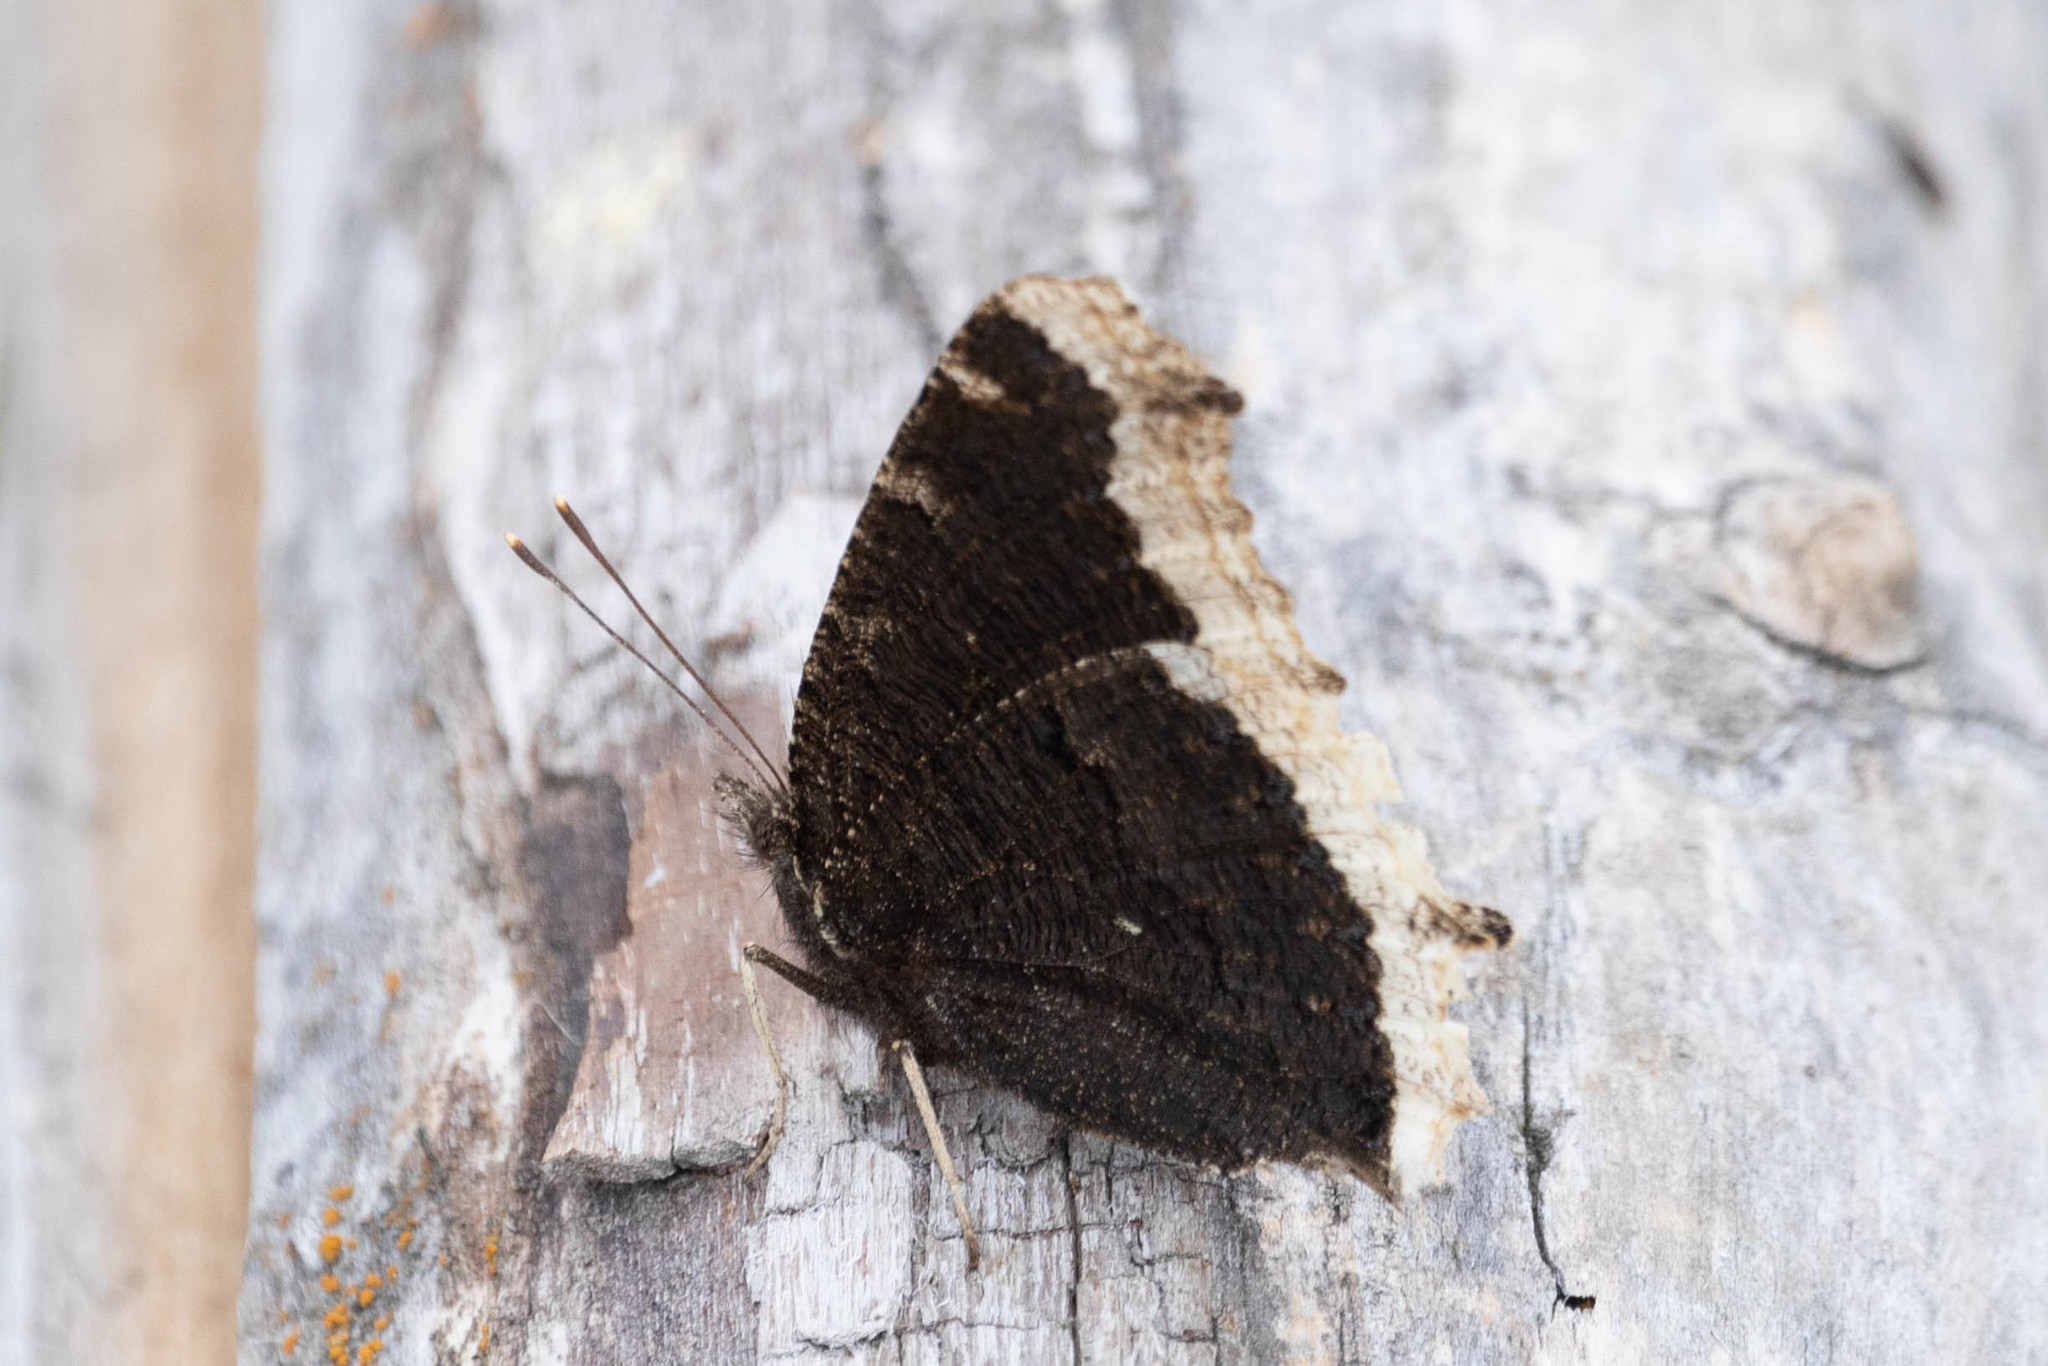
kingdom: Animalia
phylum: Arthropoda
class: Insecta
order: Lepidoptera
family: Nymphalidae
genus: Nymphalis
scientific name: Nymphalis antiopa
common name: Camberwell beauty
